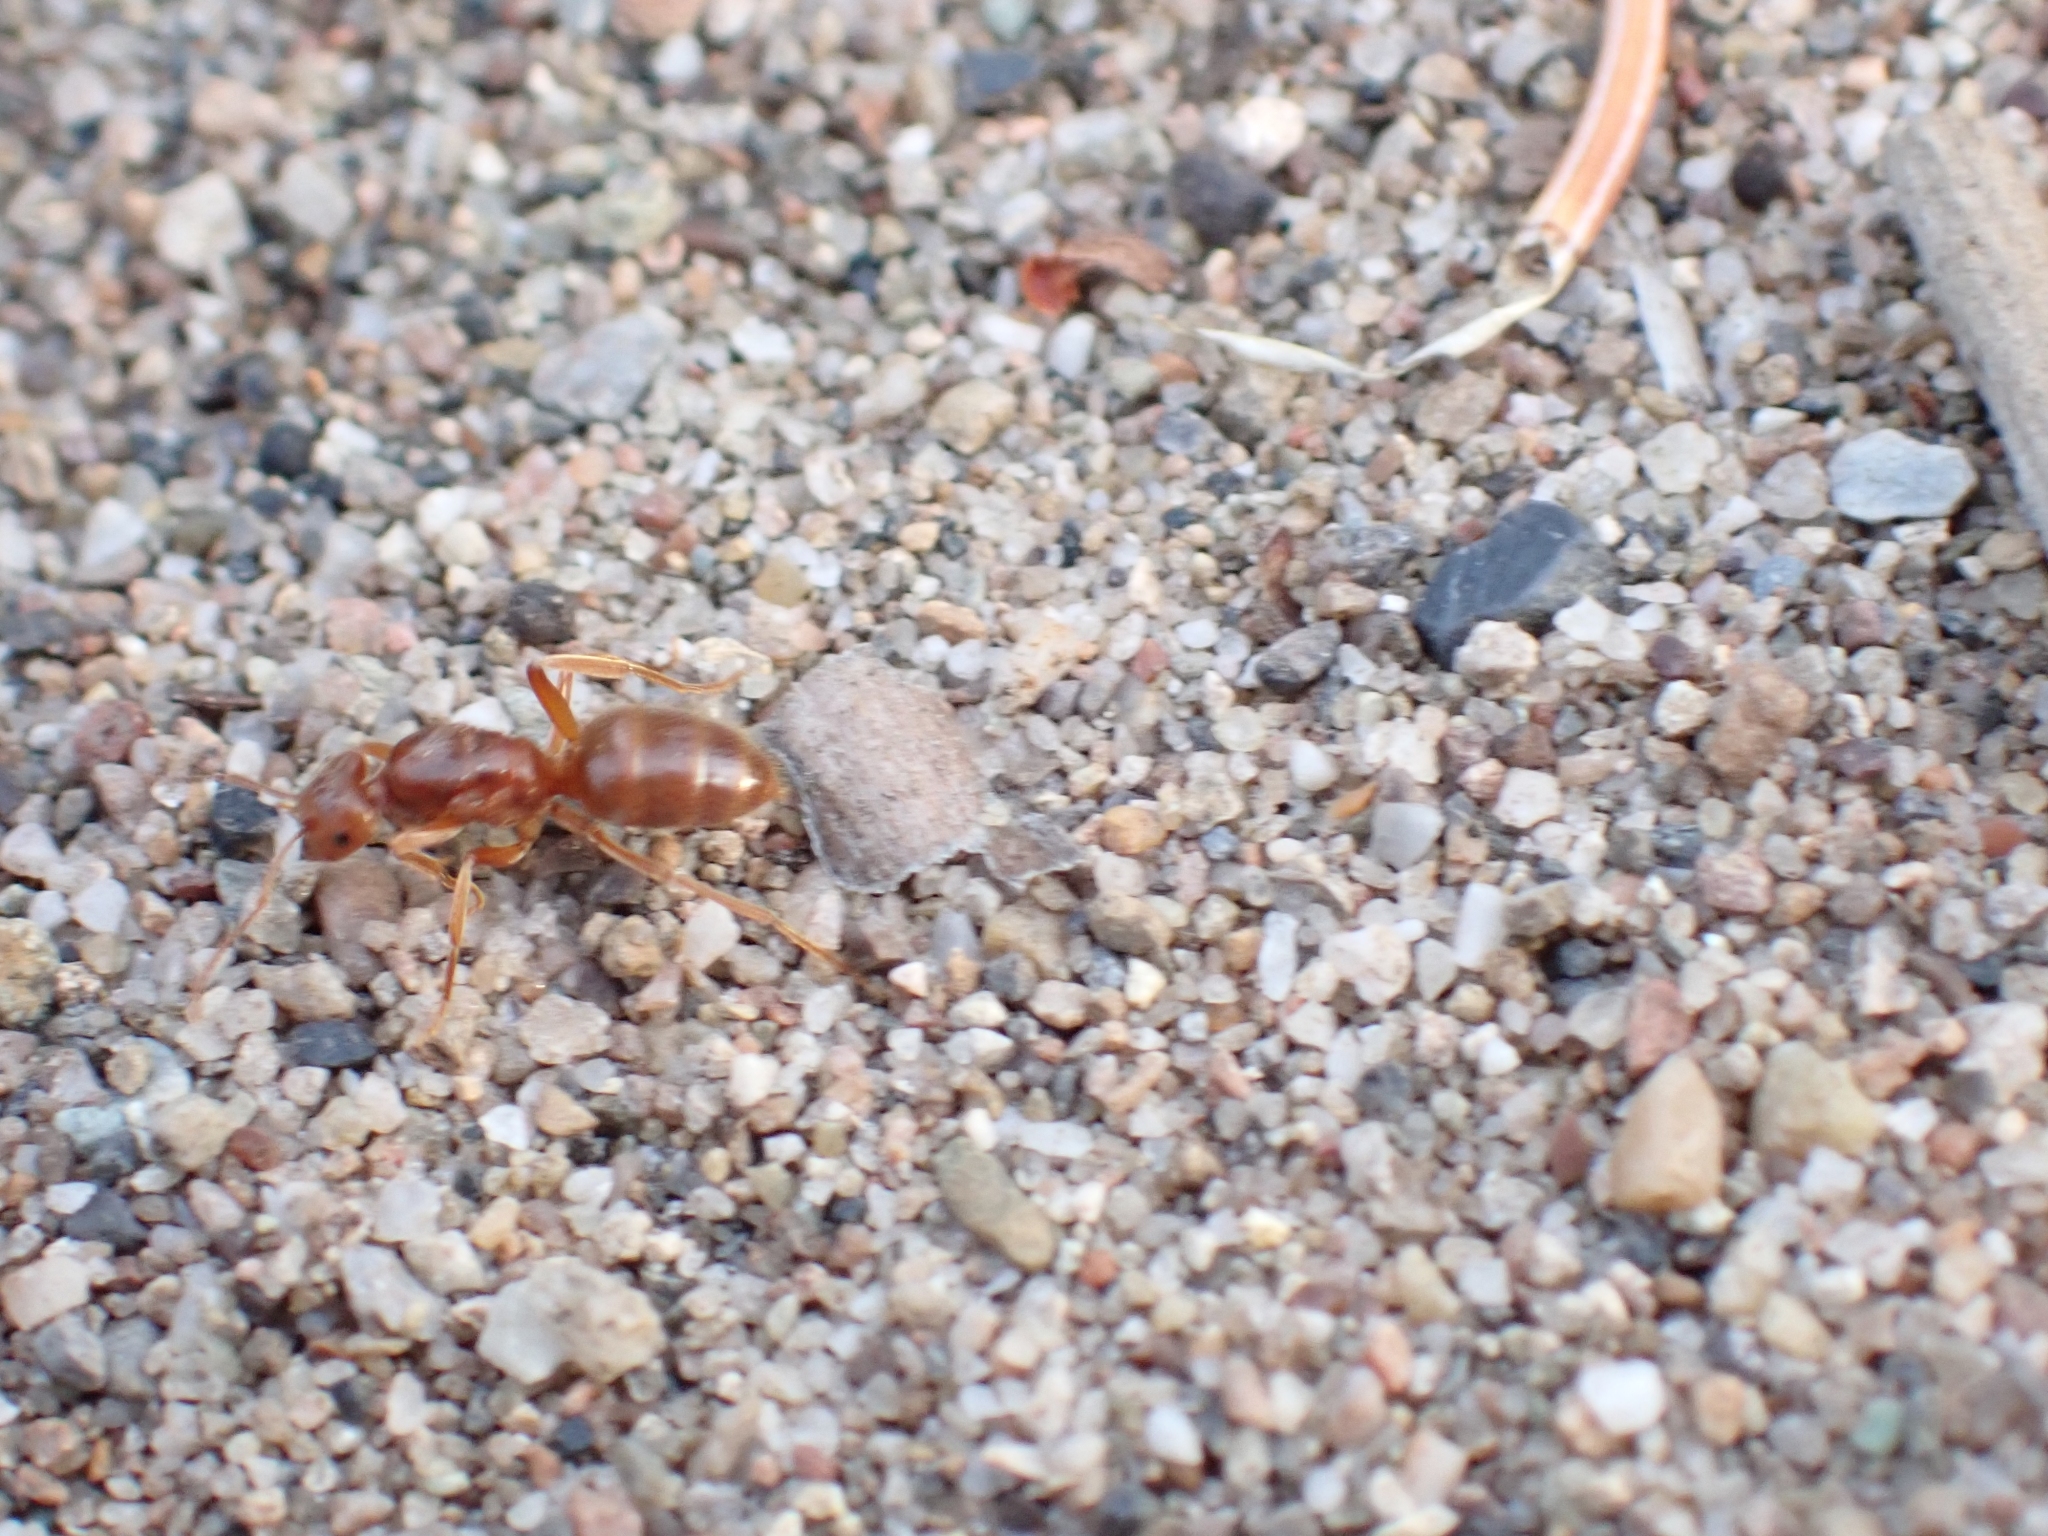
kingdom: Animalia
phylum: Arthropoda
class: Insecta
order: Hymenoptera
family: Formicidae
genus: Lasius
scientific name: Lasius subumbratus
